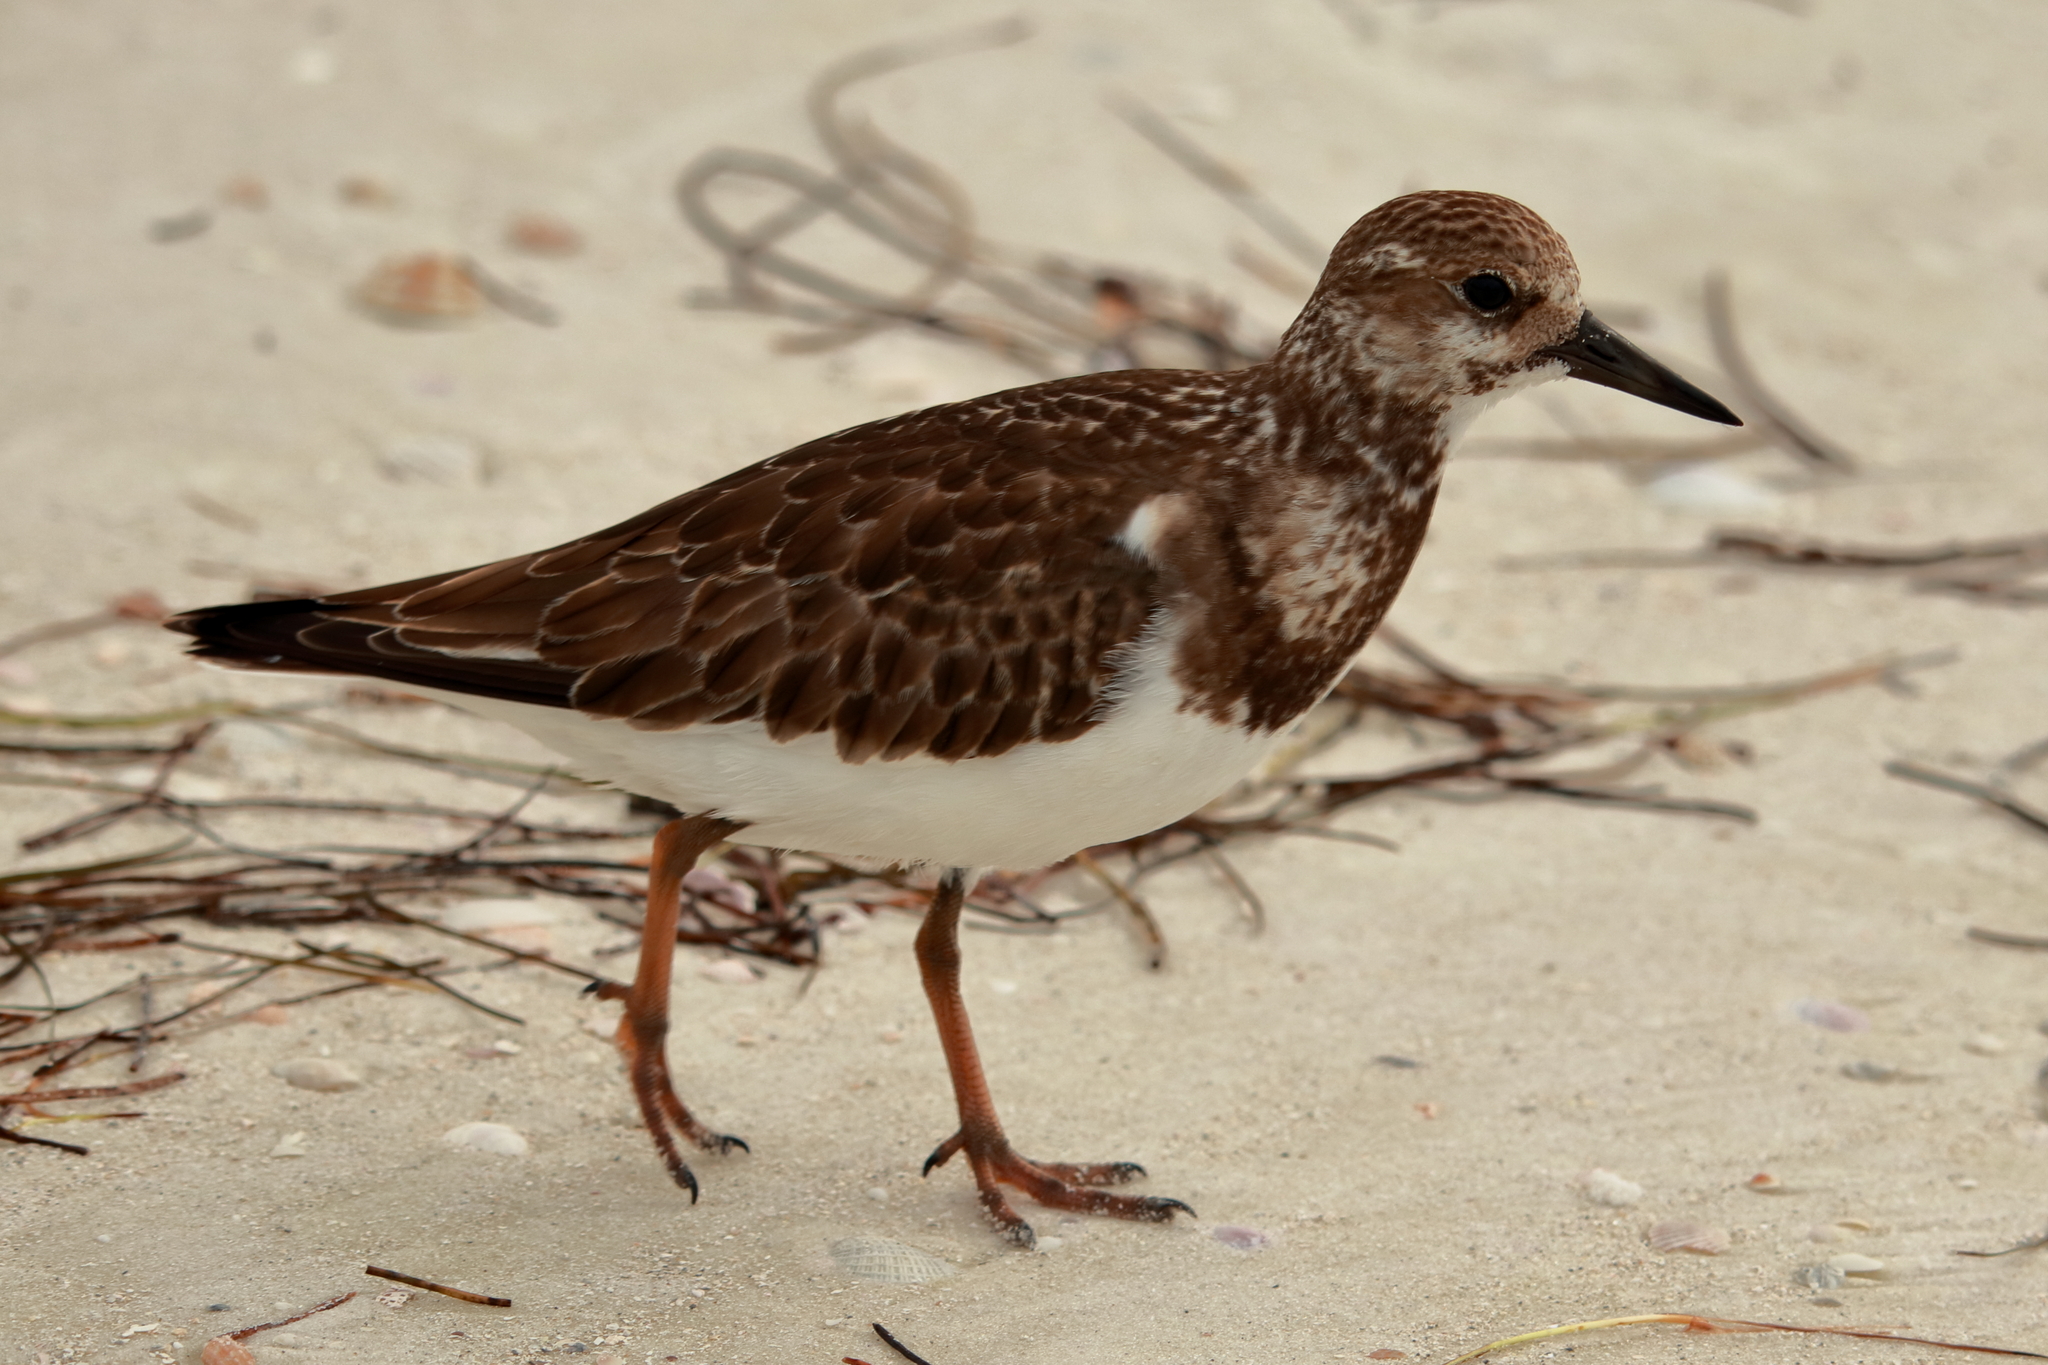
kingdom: Animalia
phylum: Chordata
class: Aves
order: Charadriiformes
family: Scolopacidae
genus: Arenaria
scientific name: Arenaria interpres
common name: Ruddy turnstone
